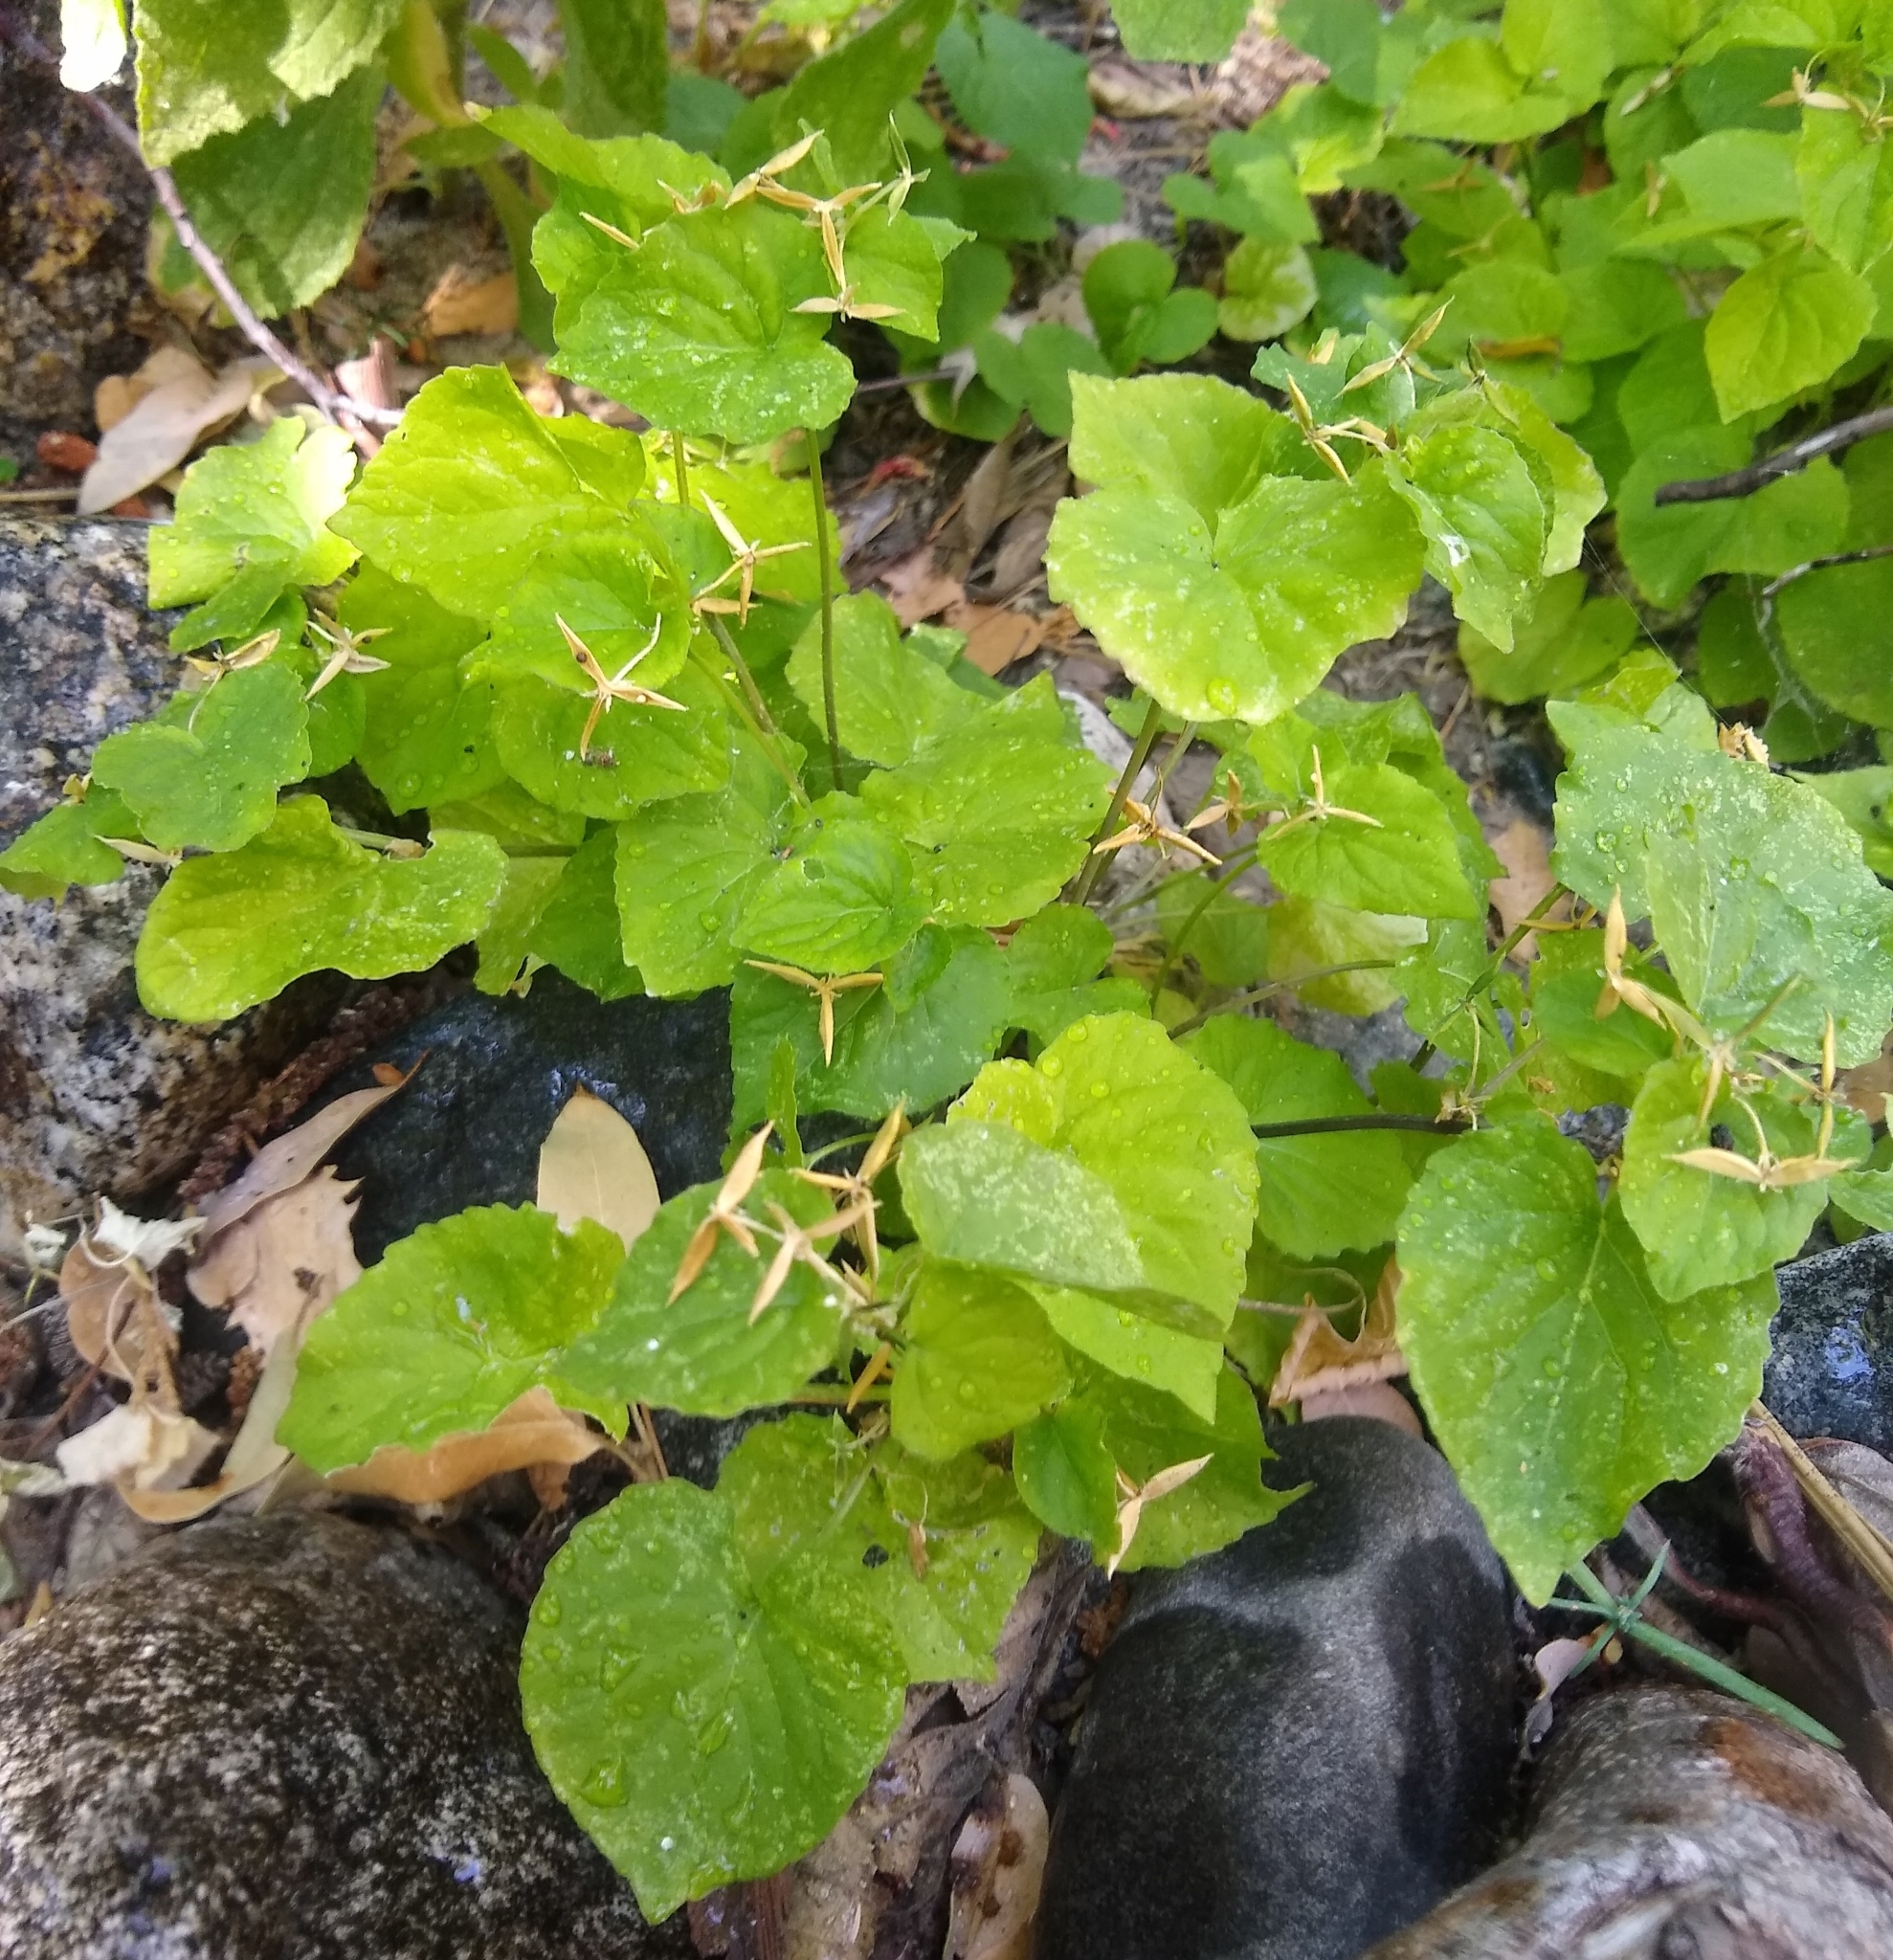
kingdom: Plantae
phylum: Tracheophyta
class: Magnoliopsida
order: Malpighiales
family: Violaceae
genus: Viola
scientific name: Viola glabella
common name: Stream violet
